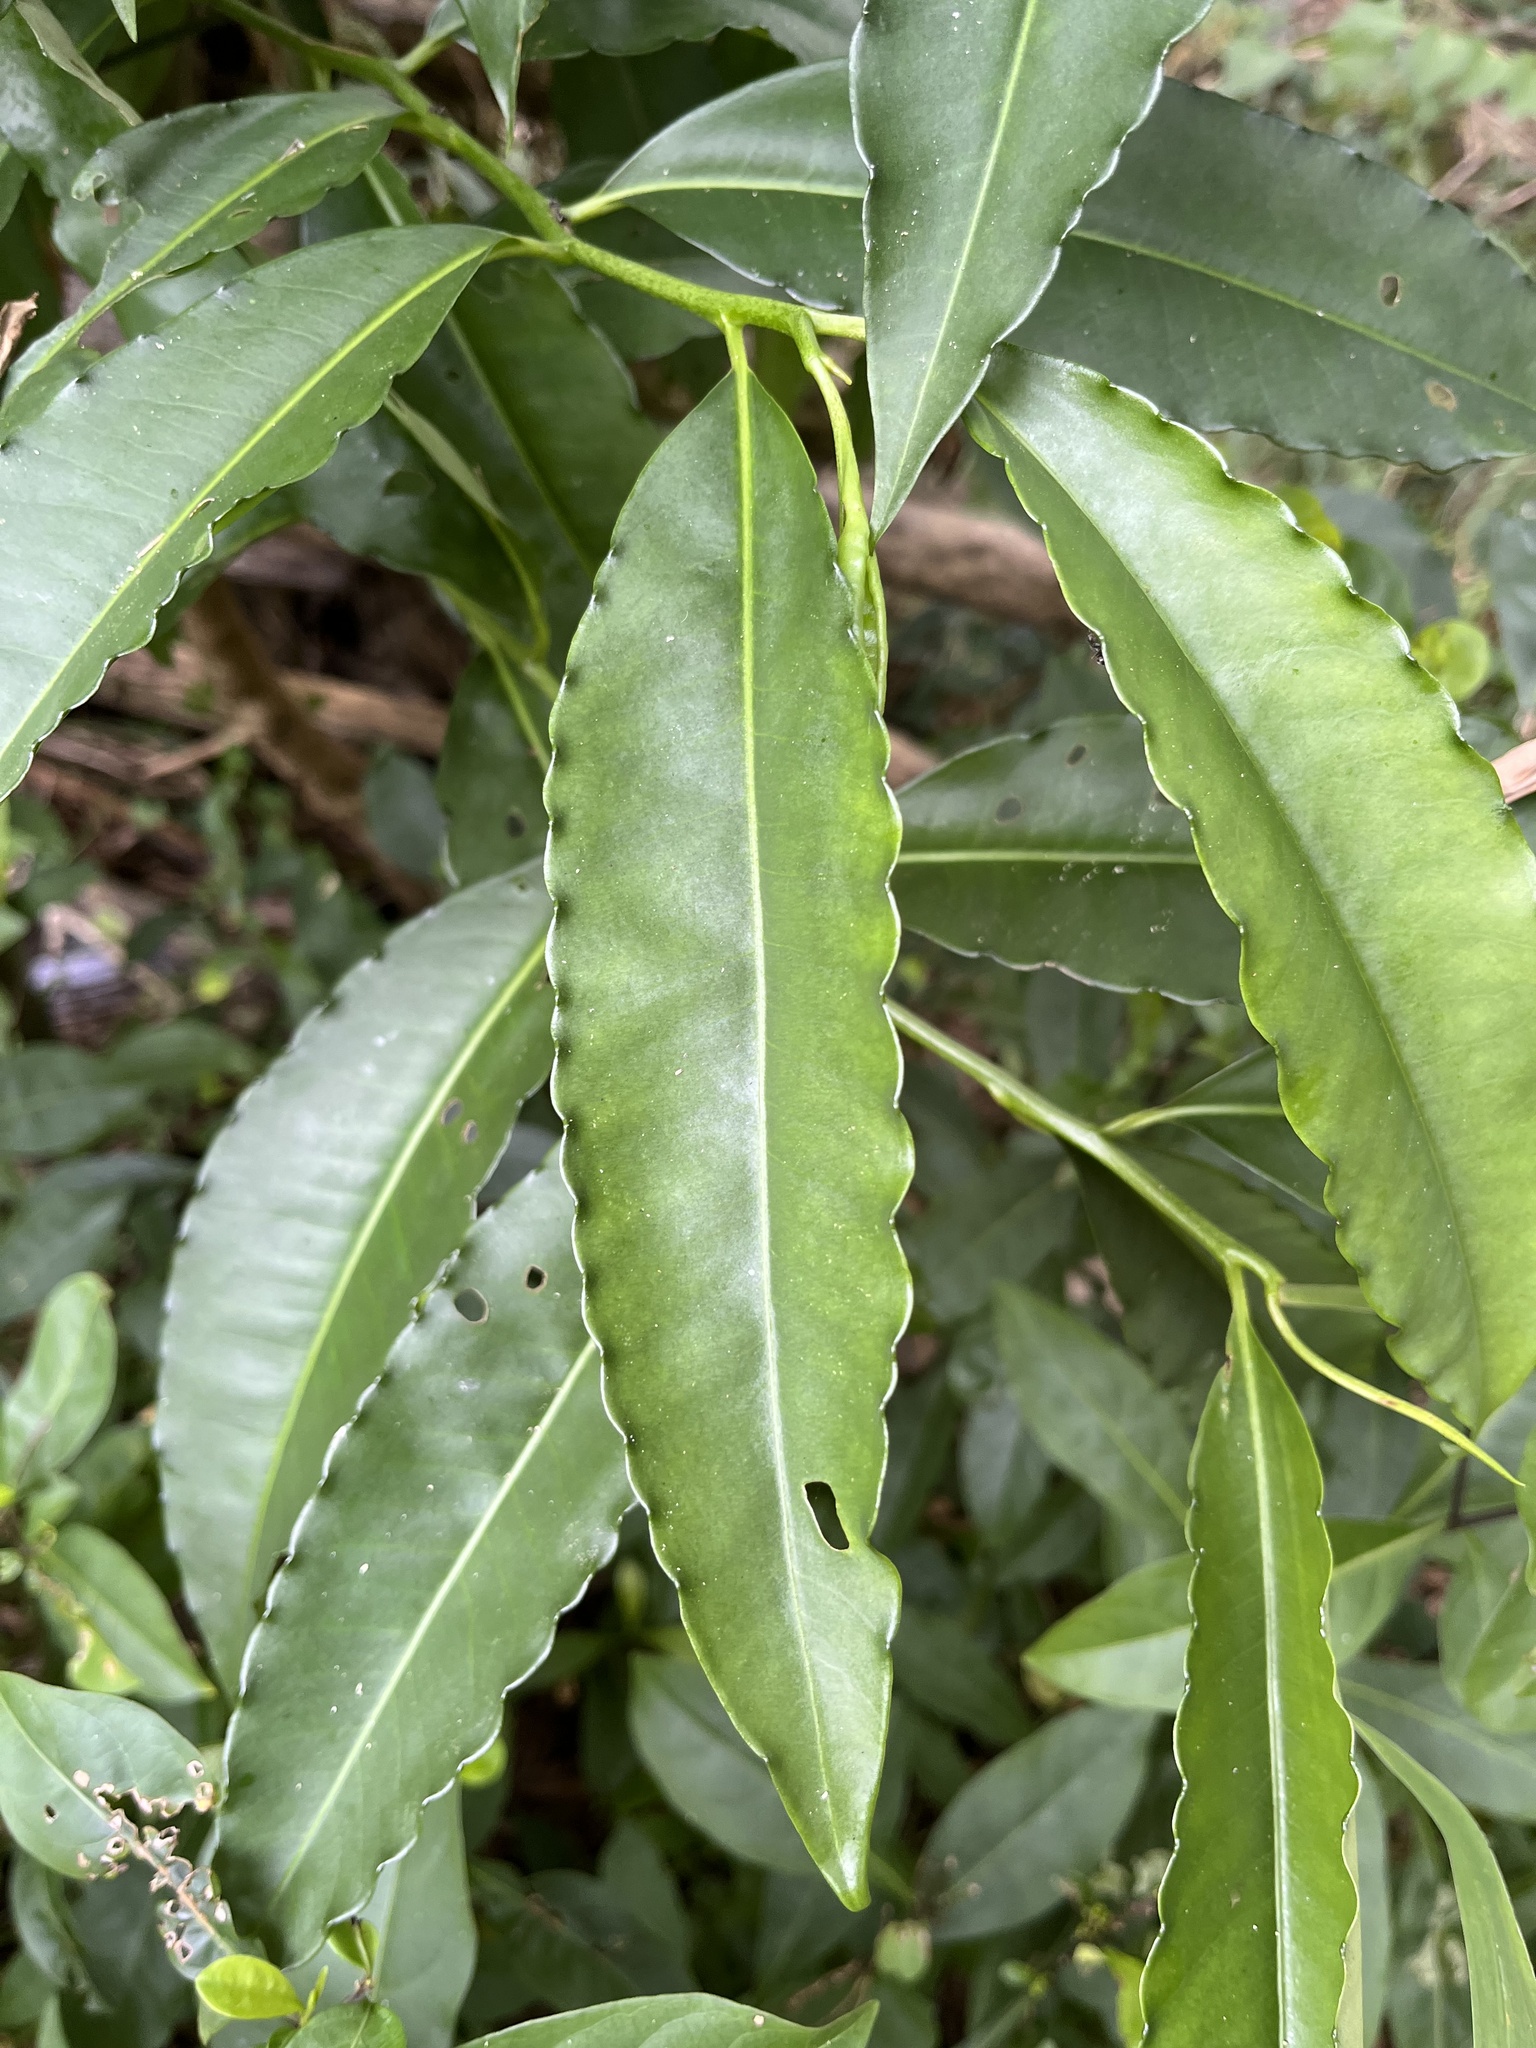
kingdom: Plantae
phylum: Tracheophyta
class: Magnoliopsida
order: Ericales
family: Primulaceae
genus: Ardisia
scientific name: Ardisia polysticta
